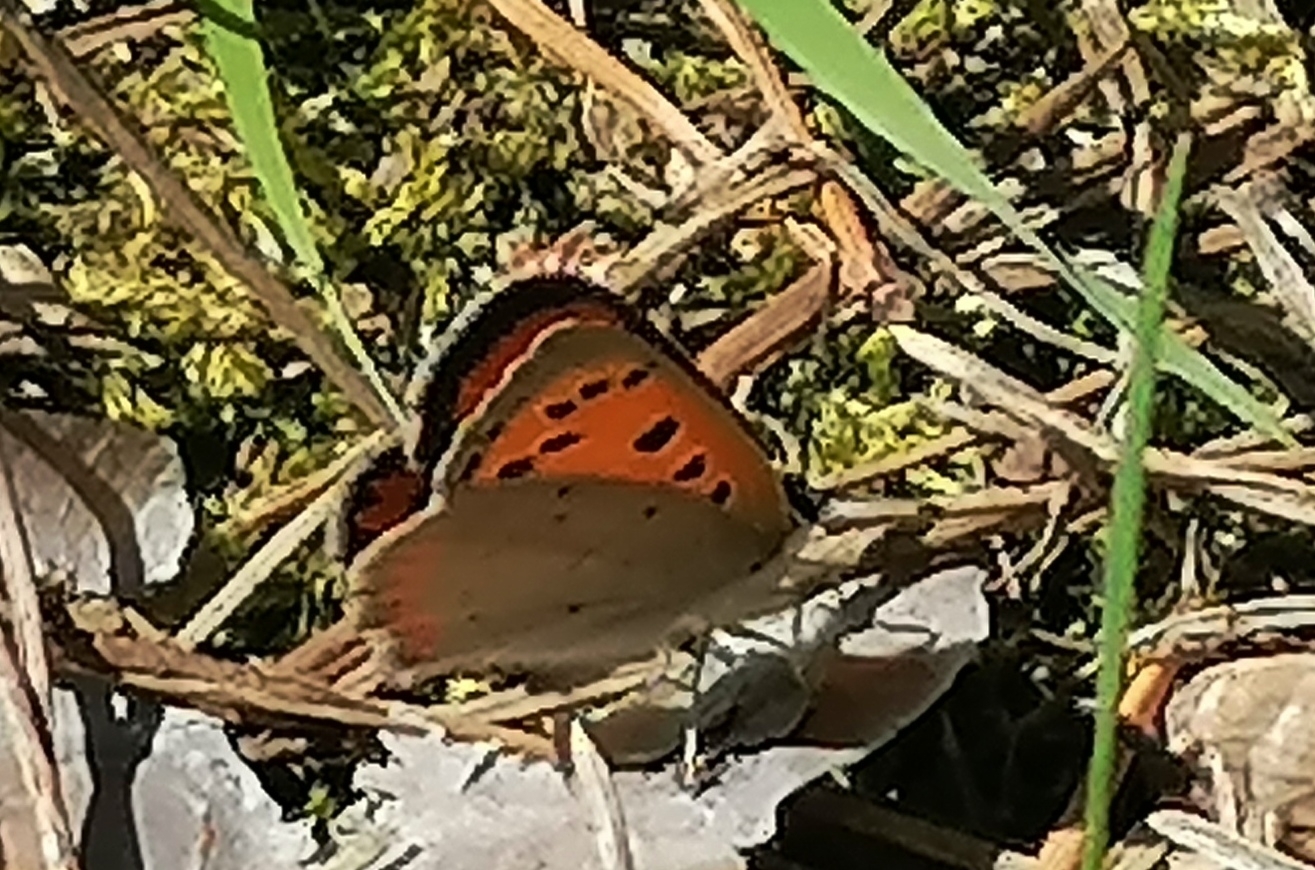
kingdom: Animalia
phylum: Arthropoda
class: Insecta
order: Lepidoptera
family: Lycaenidae
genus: Lycaena
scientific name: Lycaena phlaeas
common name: Small copper
